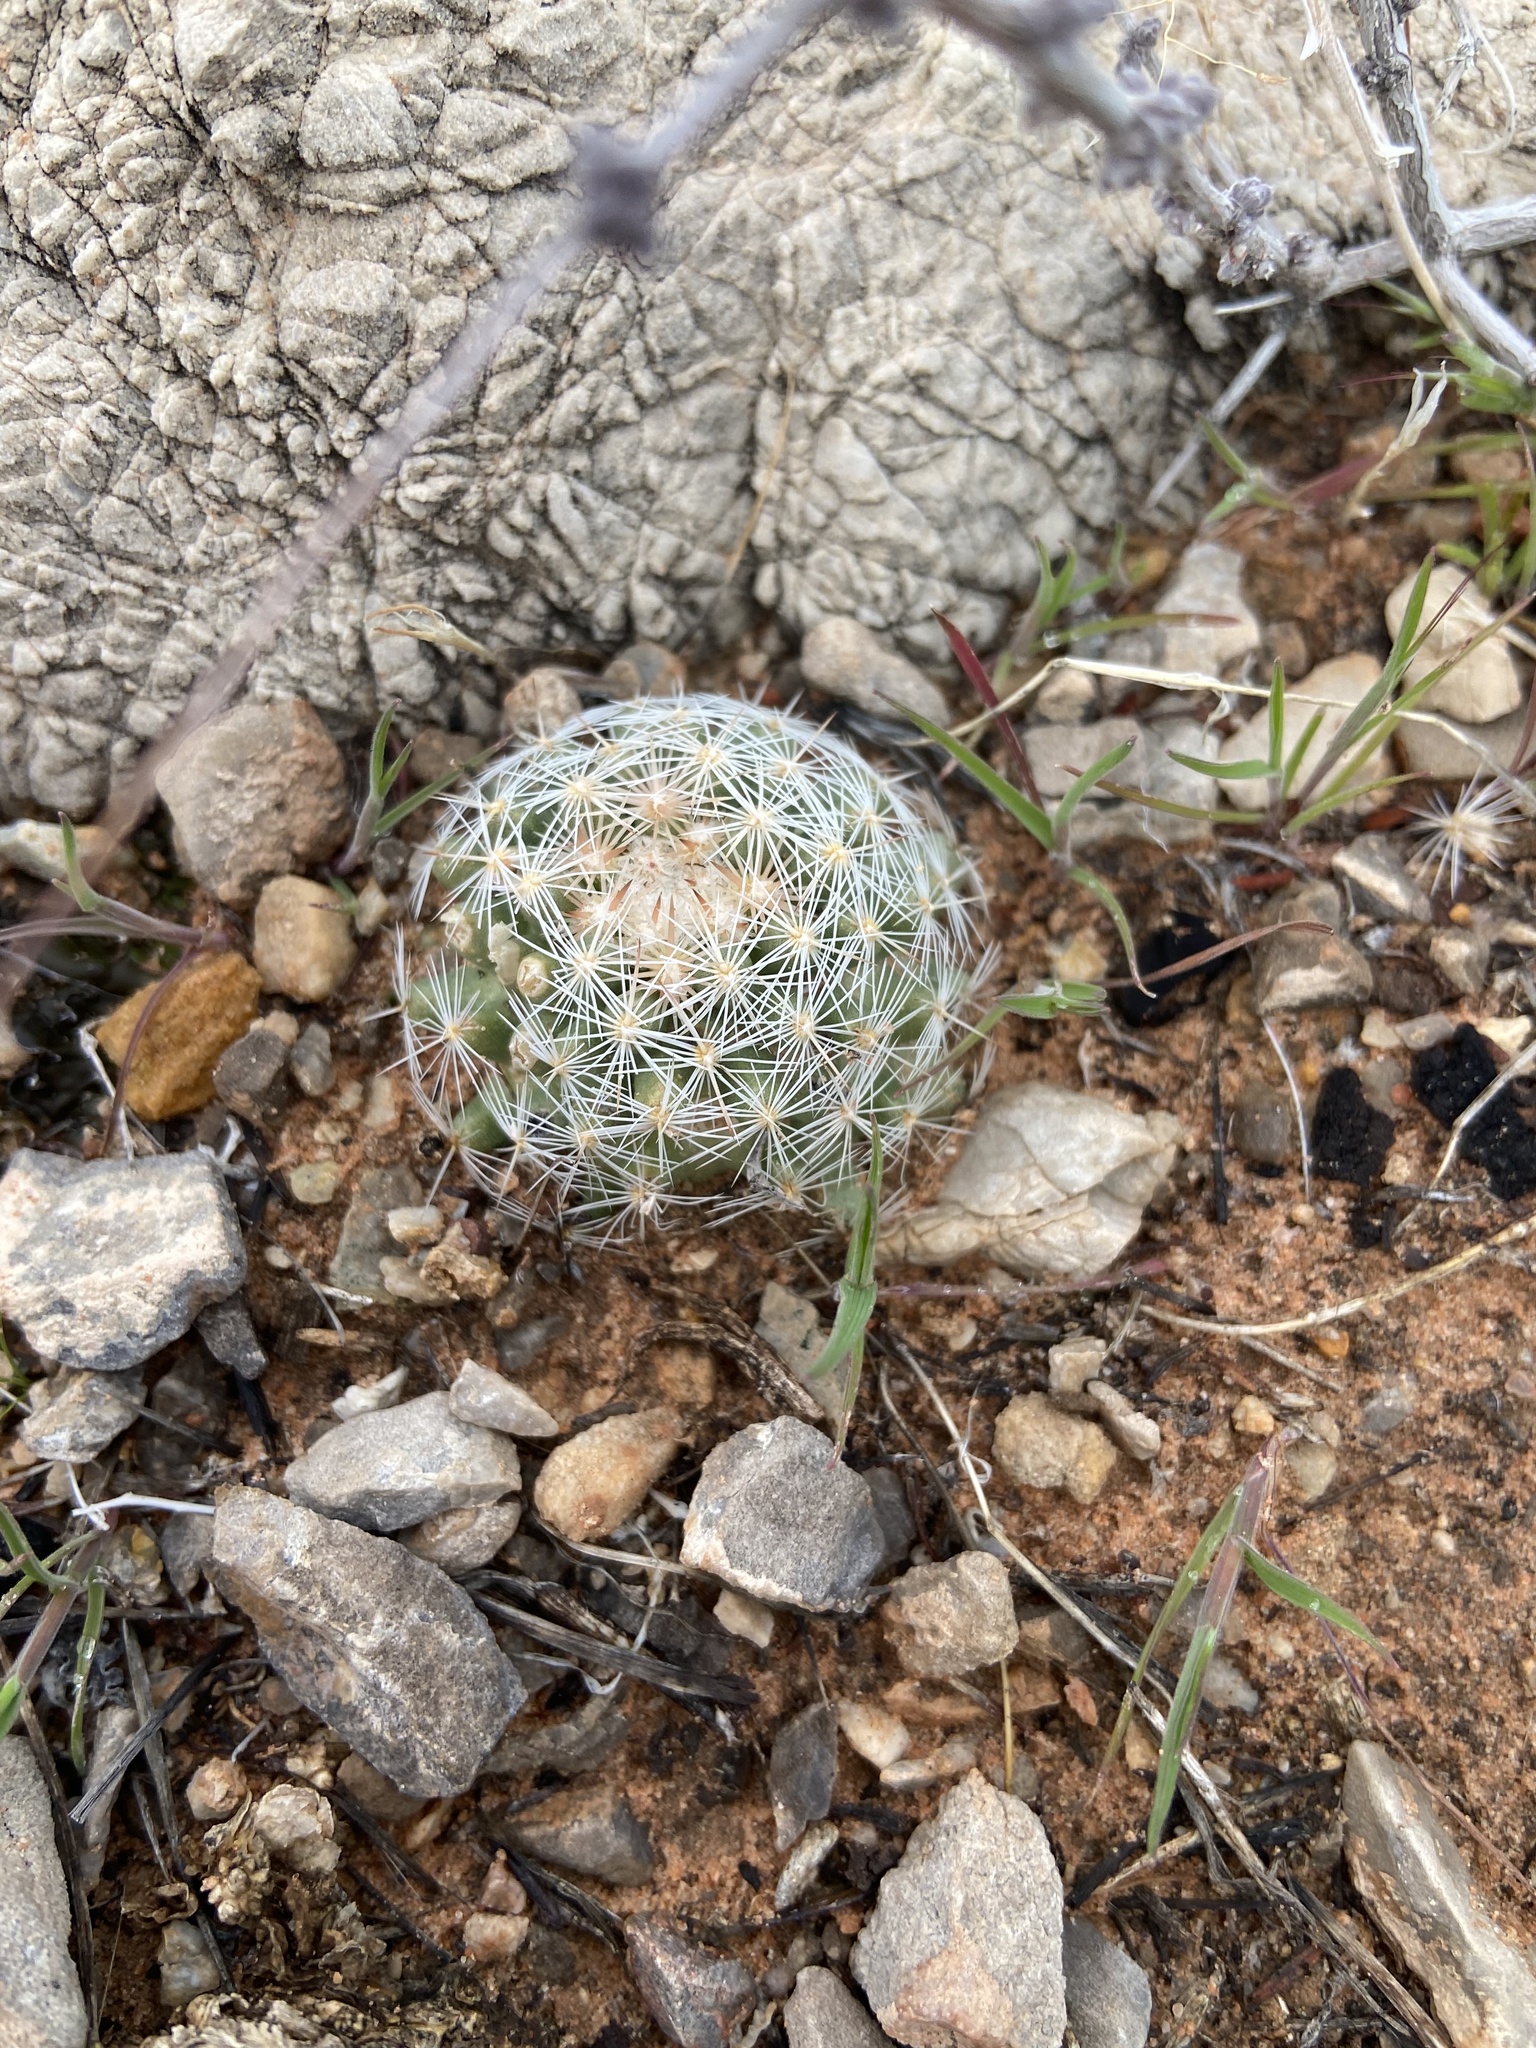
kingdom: Plantae
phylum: Tracheophyta
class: Magnoliopsida
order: Caryophyllales
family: Cactaceae
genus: Pelecyphora
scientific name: Pelecyphora vivipara
